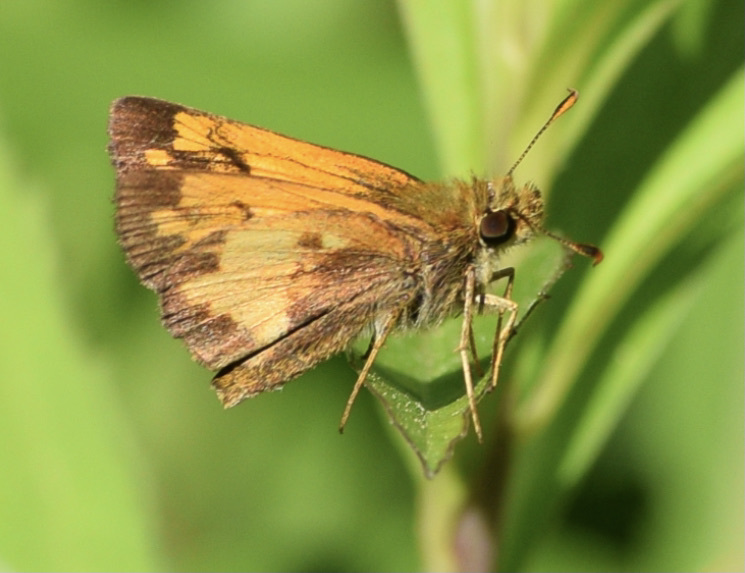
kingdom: Animalia
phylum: Arthropoda
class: Insecta
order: Lepidoptera
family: Hesperiidae
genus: Lon
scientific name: Lon hobomok
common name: Hobomok skipper
